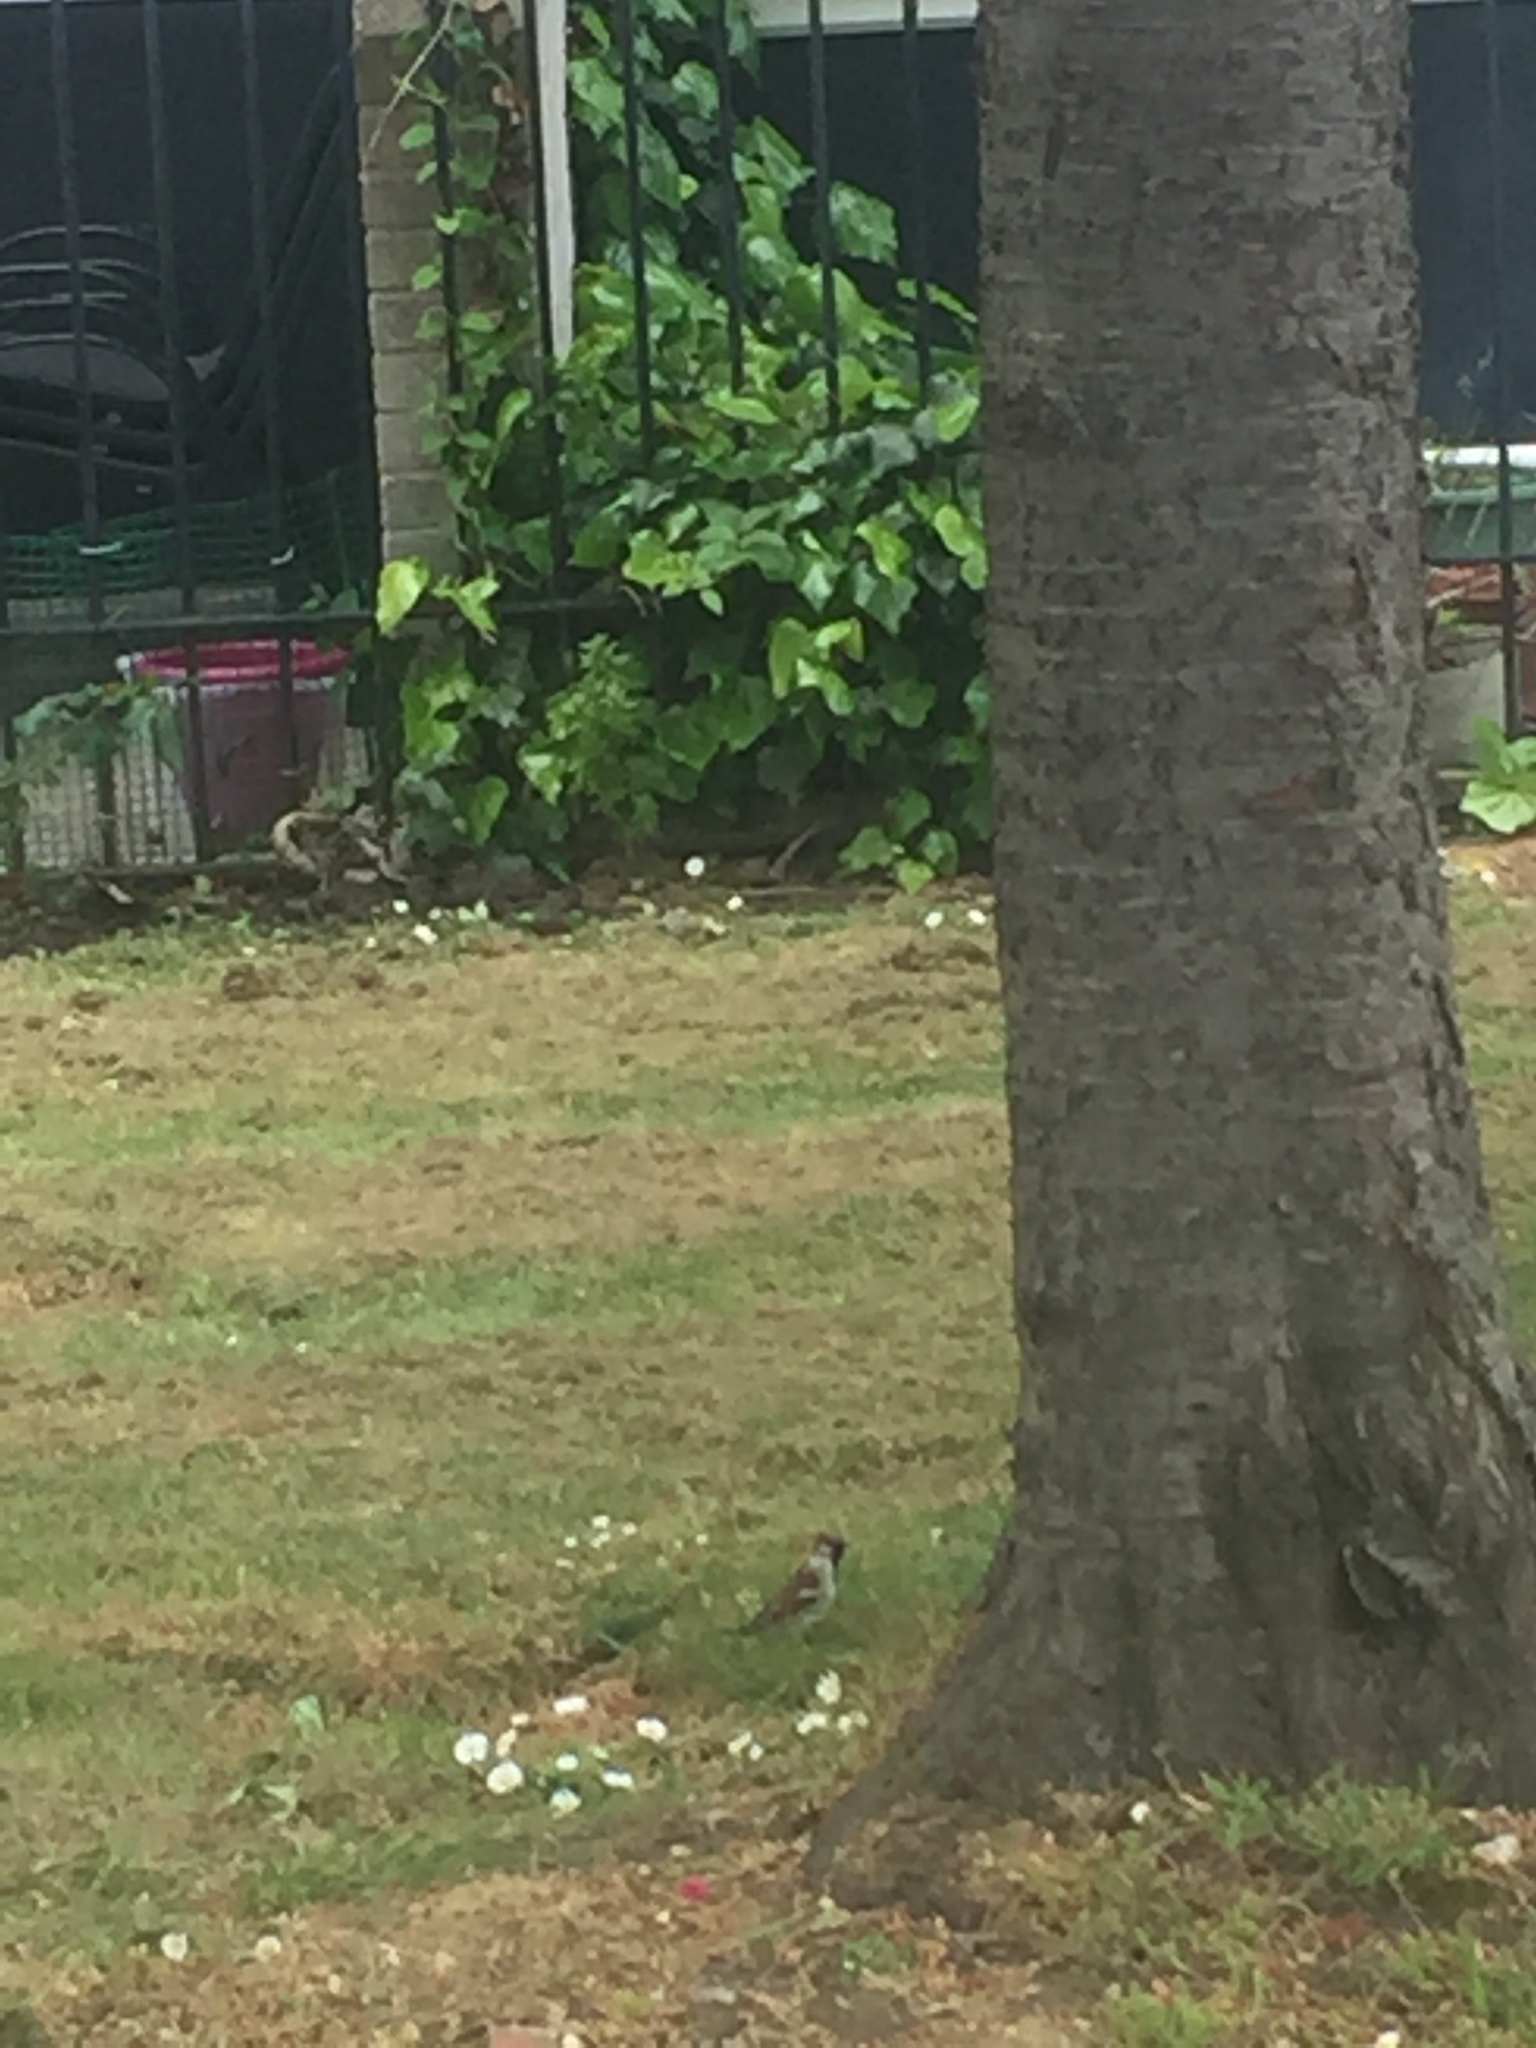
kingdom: Animalia
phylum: Chordata
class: Aves
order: Passeriformes
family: Passeridae
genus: Passer
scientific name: Passer domesticus
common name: House sparrow
